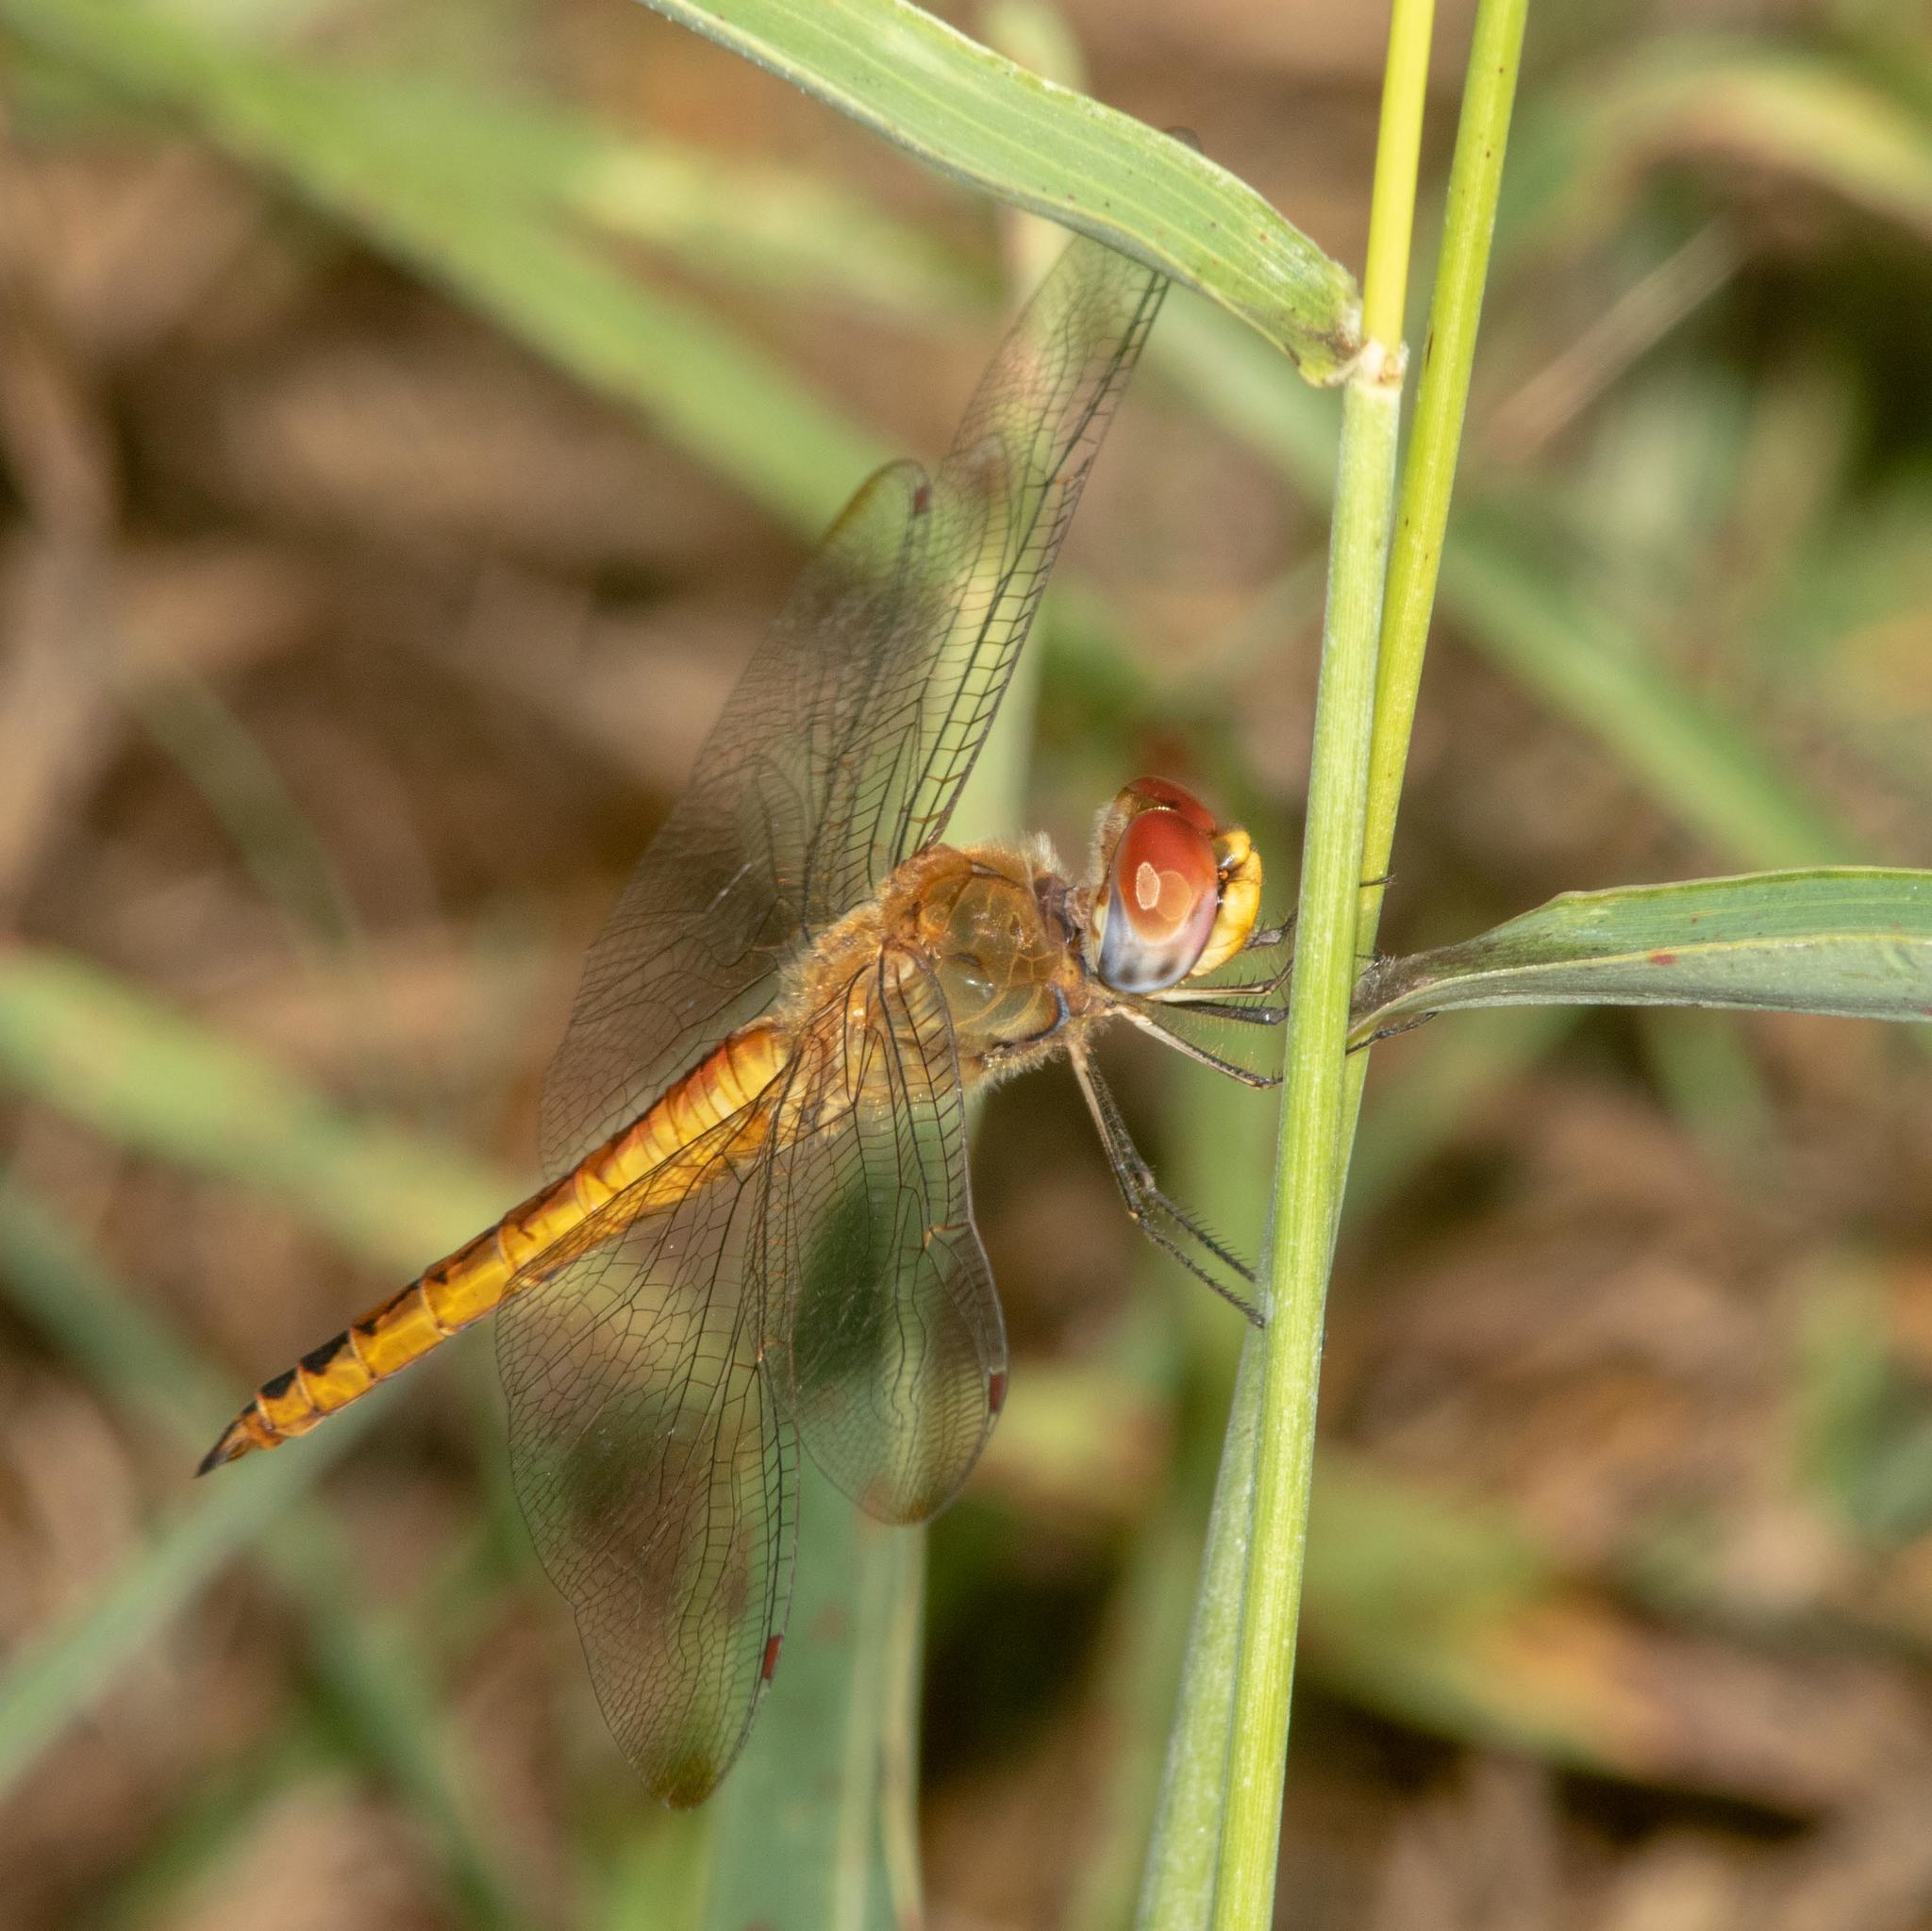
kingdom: Animalia
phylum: Arthropoda
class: Insecta
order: Odonata
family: Libellulidae
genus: Pantala
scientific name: Pantala flavescens
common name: Wandering glider
